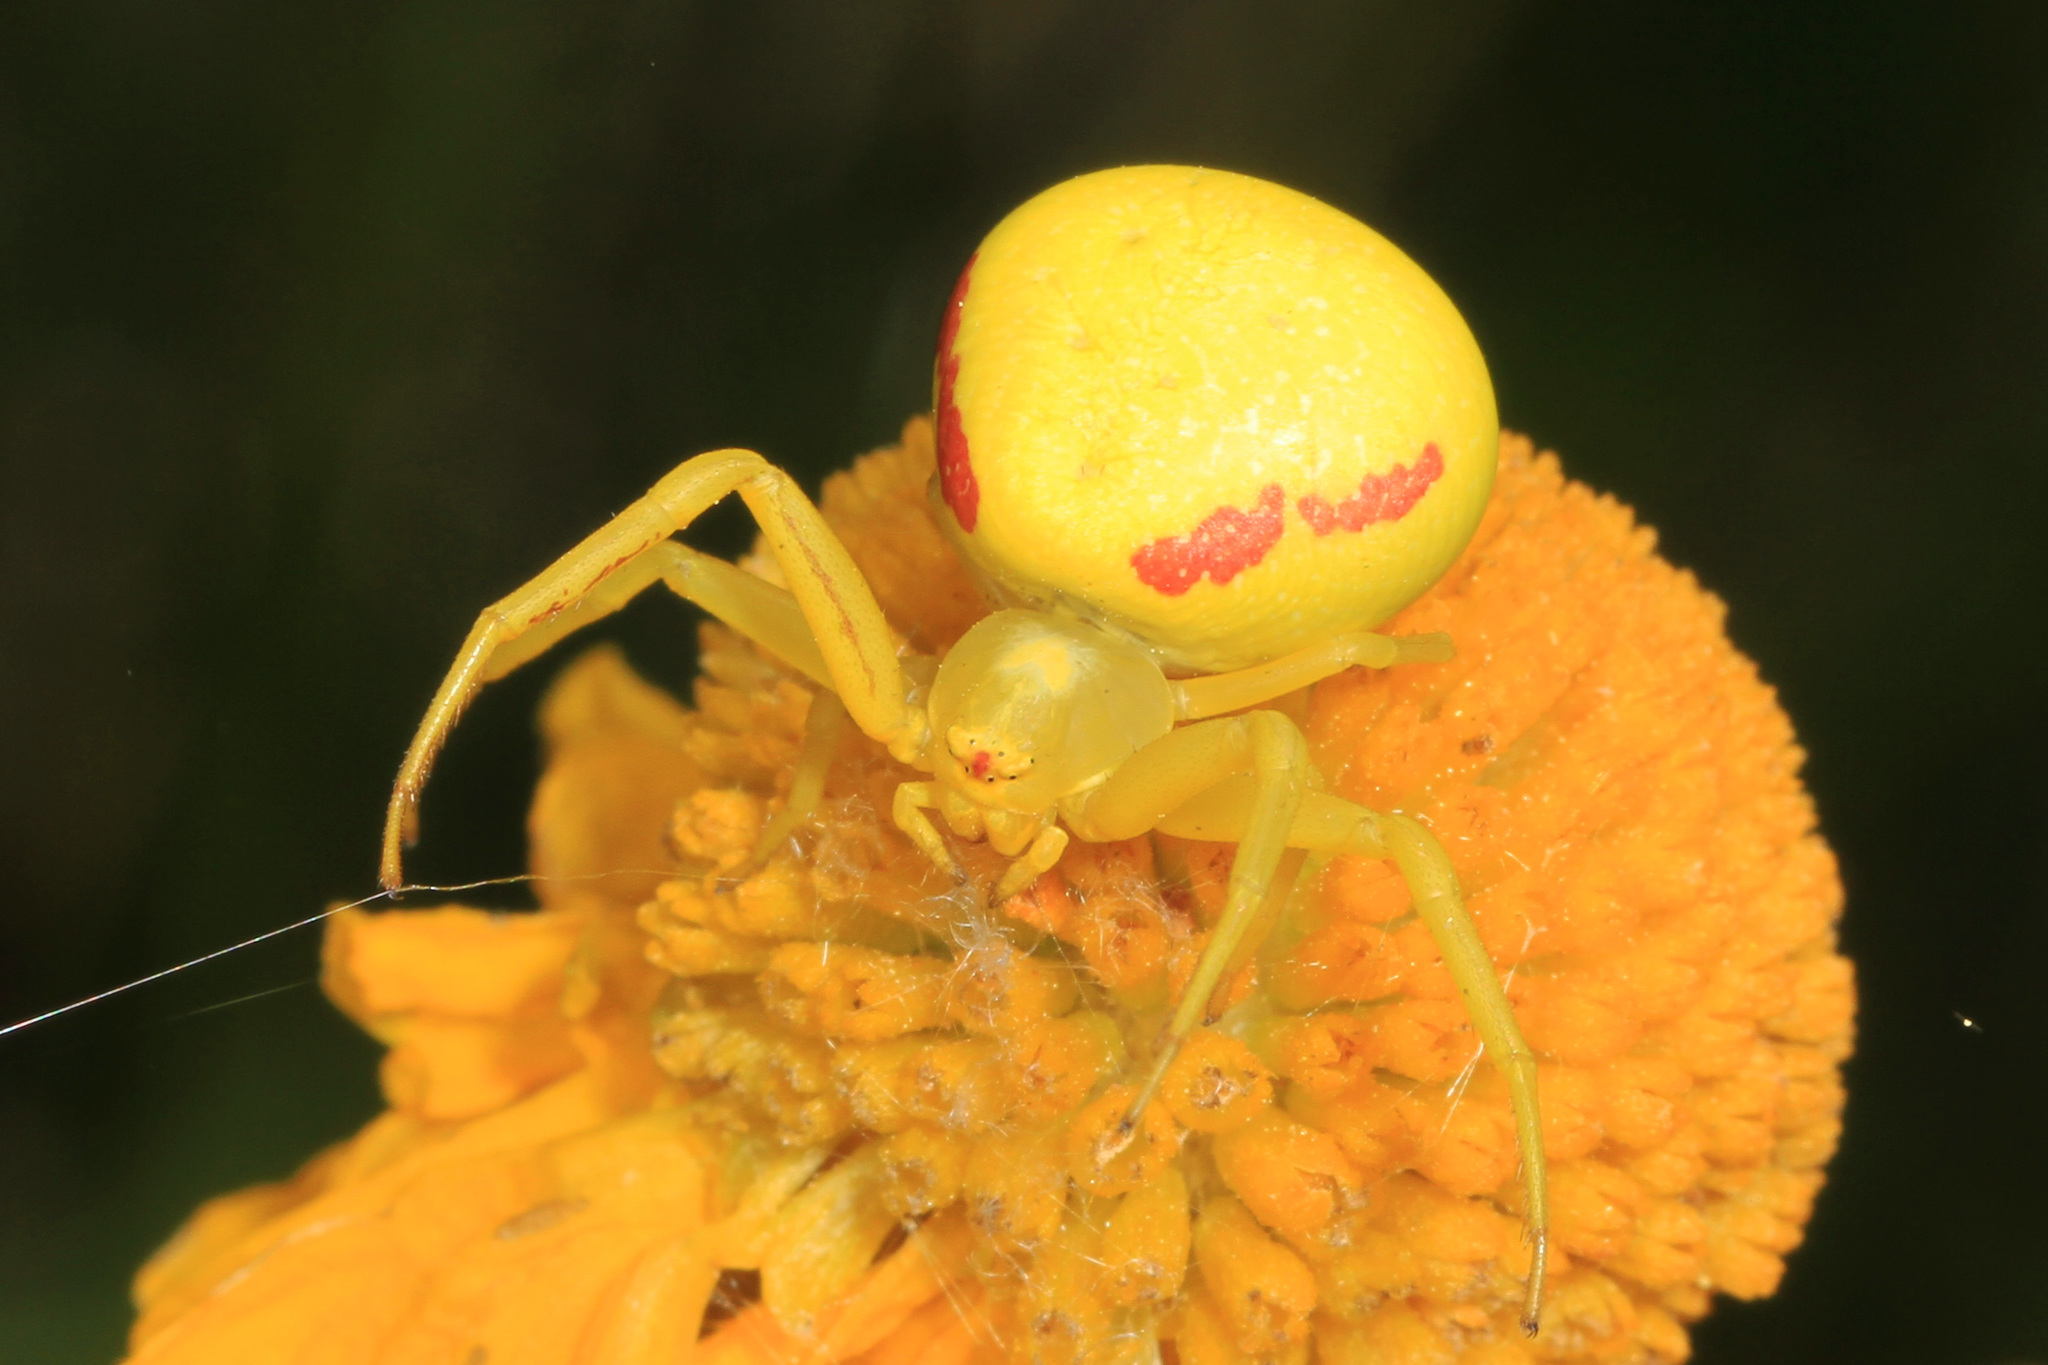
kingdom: Animalia
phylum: Arthropoda
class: Arachnida
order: Araneae
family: Thomisidae
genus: Misumena
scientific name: Misumena vatia
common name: Goldenrod crab spider
